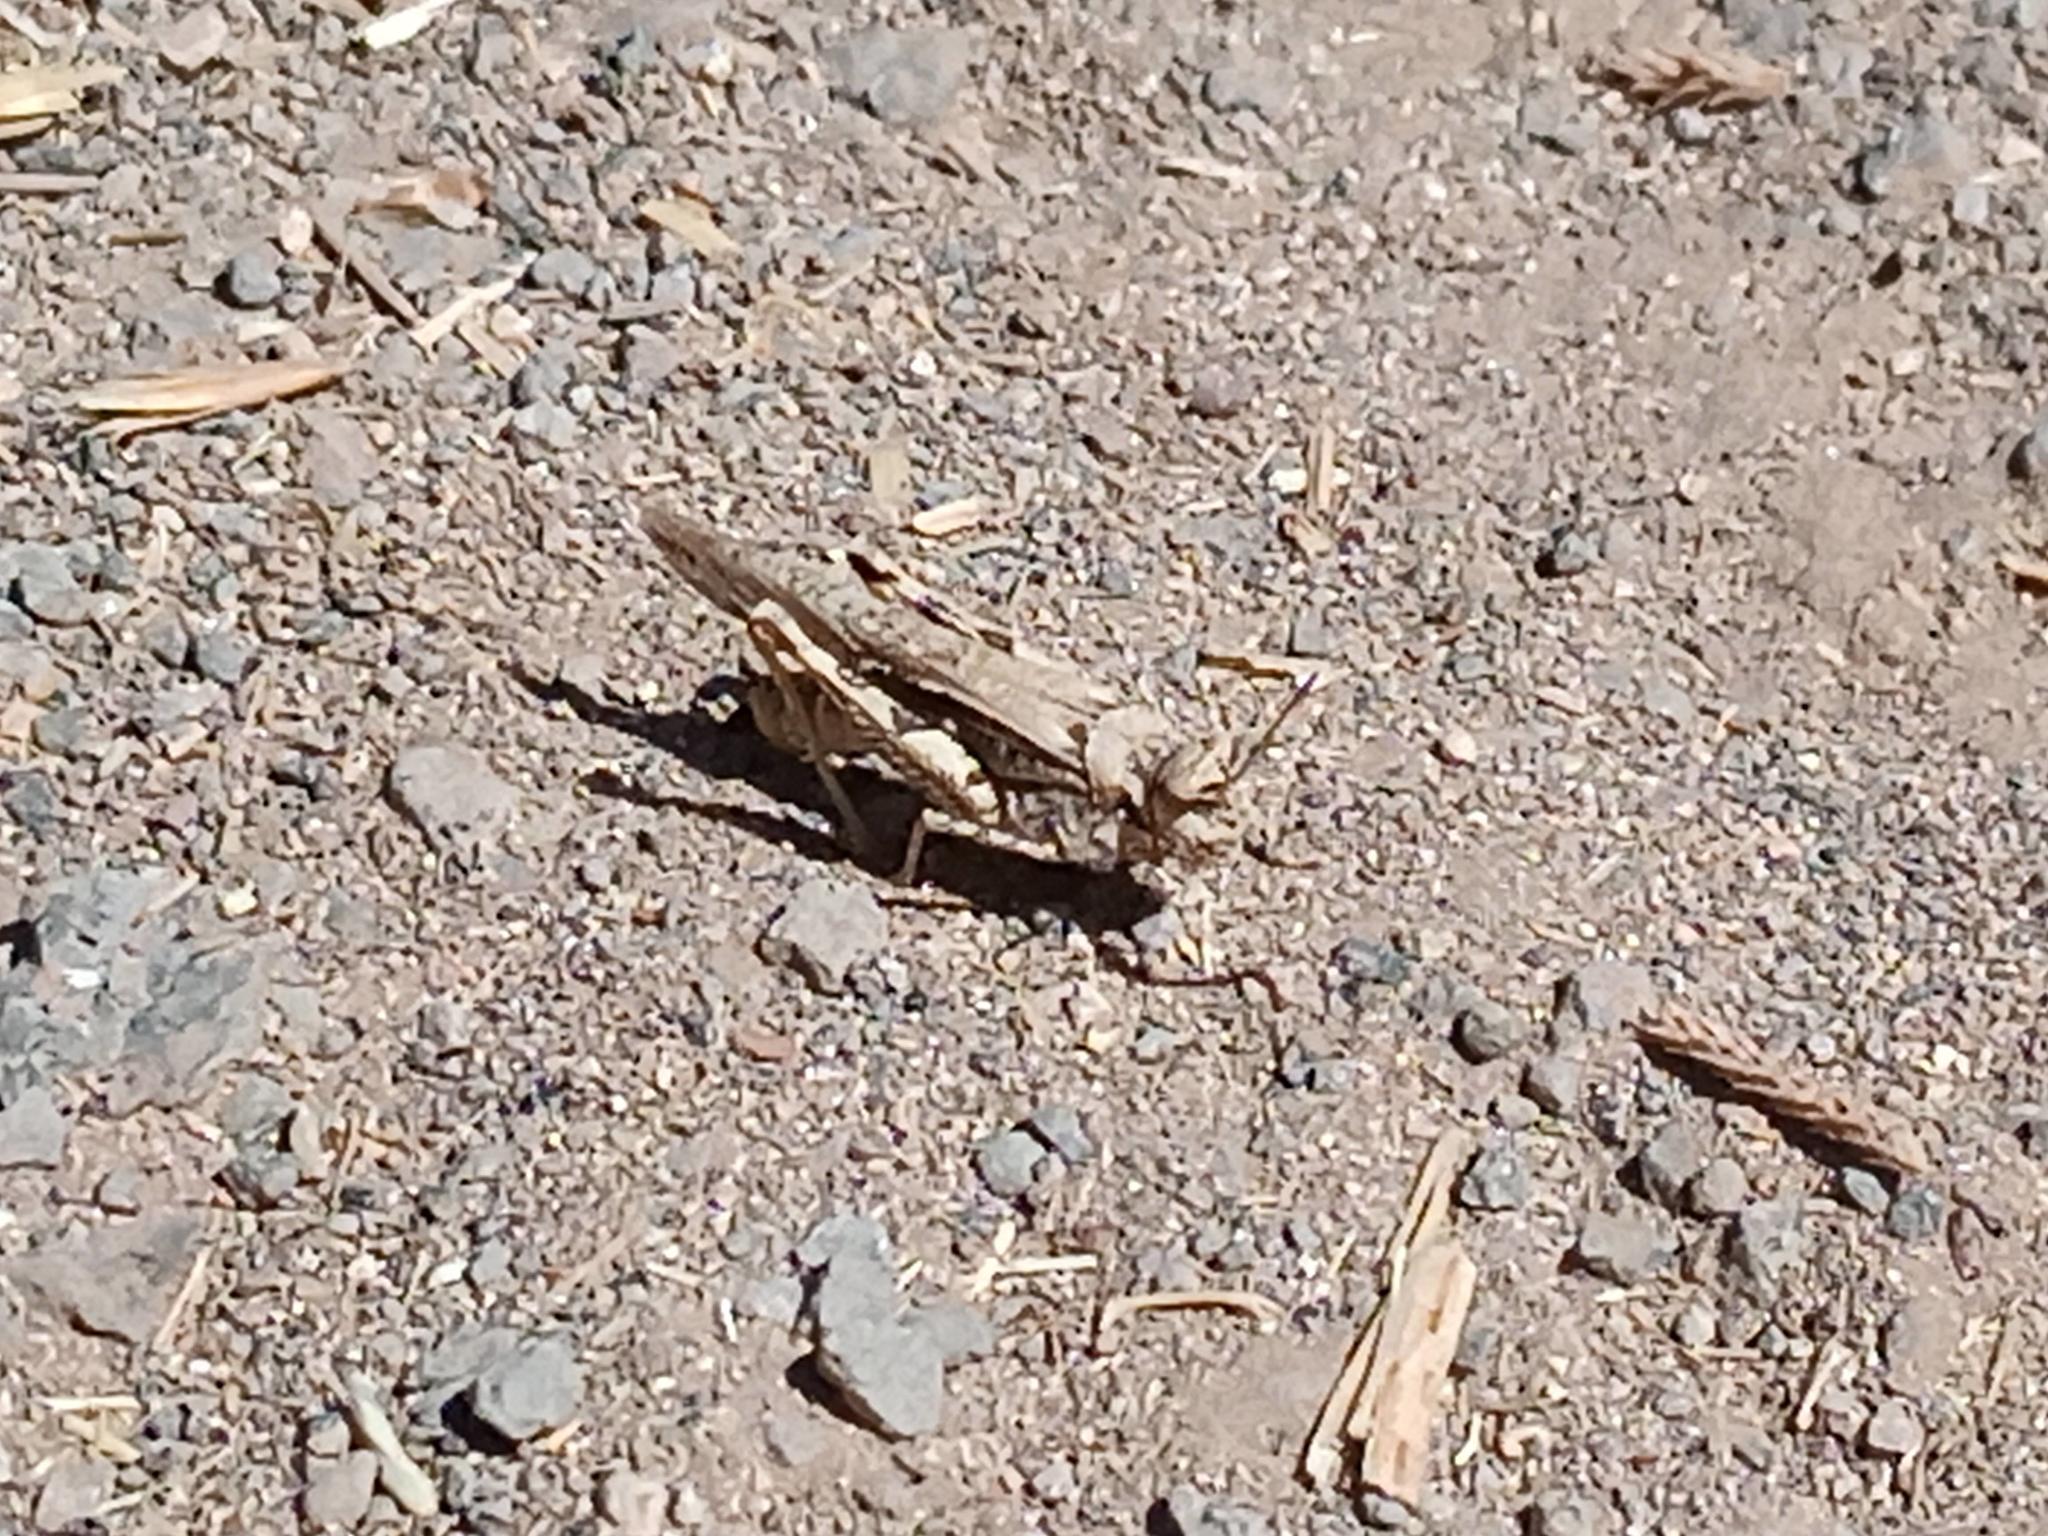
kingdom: Animalia
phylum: Arthropoda
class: Insecta
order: Orthoptera
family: Acrididae
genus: Acrotylus
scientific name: Acrotylus insubricus
